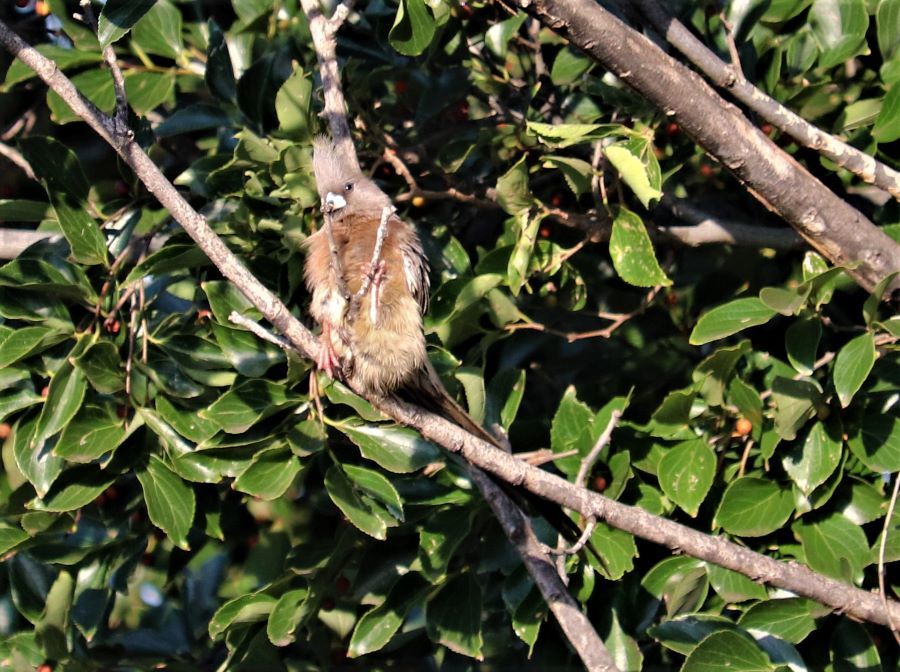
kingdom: Animalia
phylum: Chordata
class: Aves
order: Coliiformes
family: Coliidae
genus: Colius
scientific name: Colius colius
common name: White-backed mousebird
